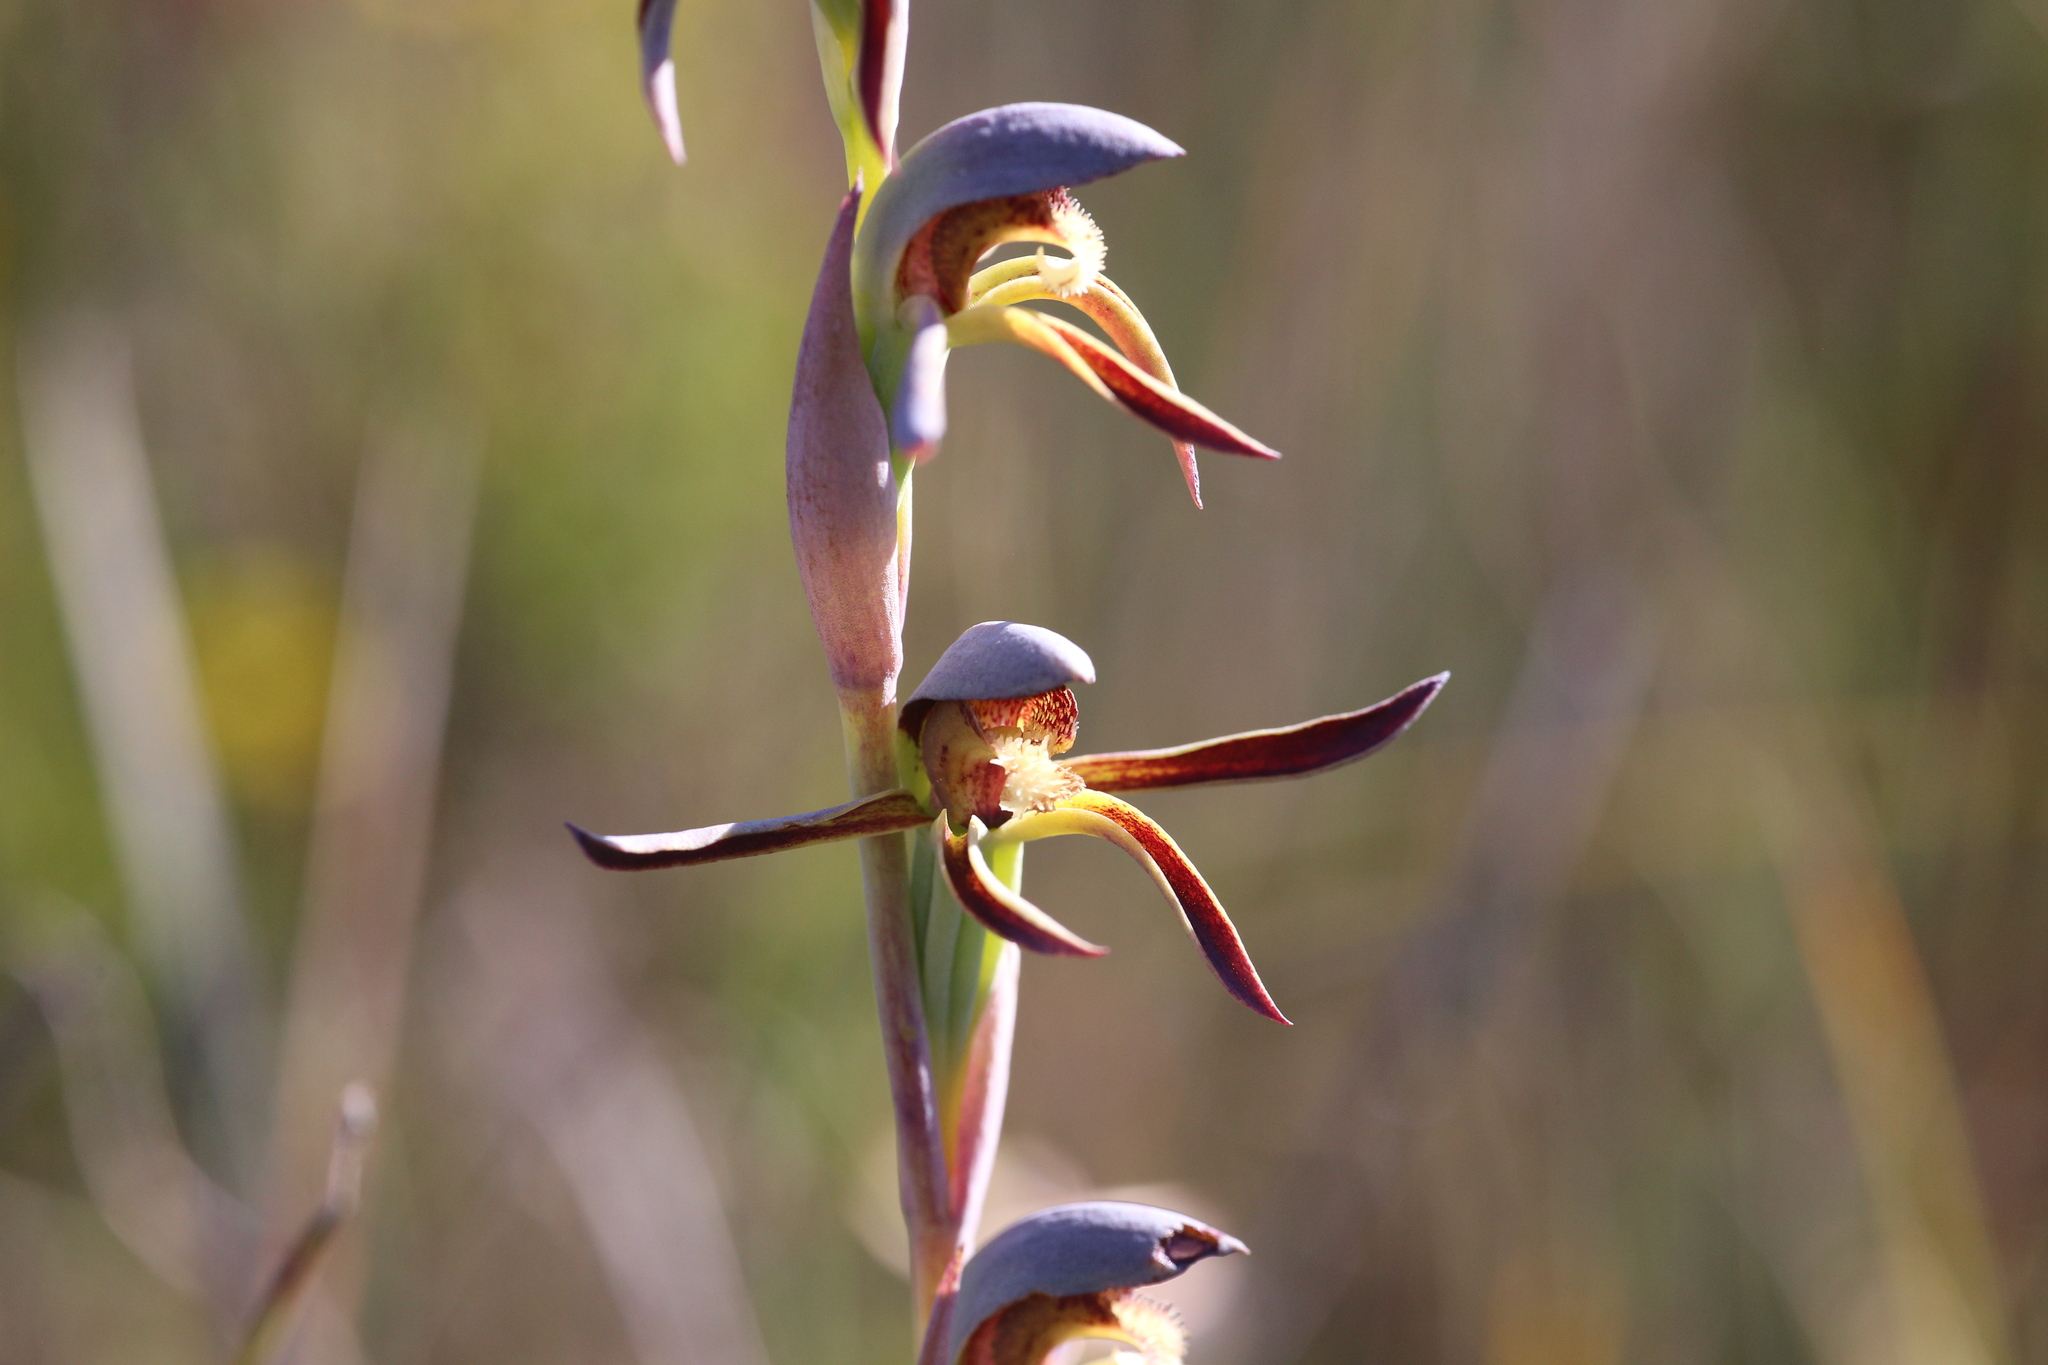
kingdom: Plantae
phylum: Tracheophyta
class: Liliopsida
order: Asparagales
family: Orchidaceae
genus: Lyperanthus
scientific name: Lyperanthus serratus
